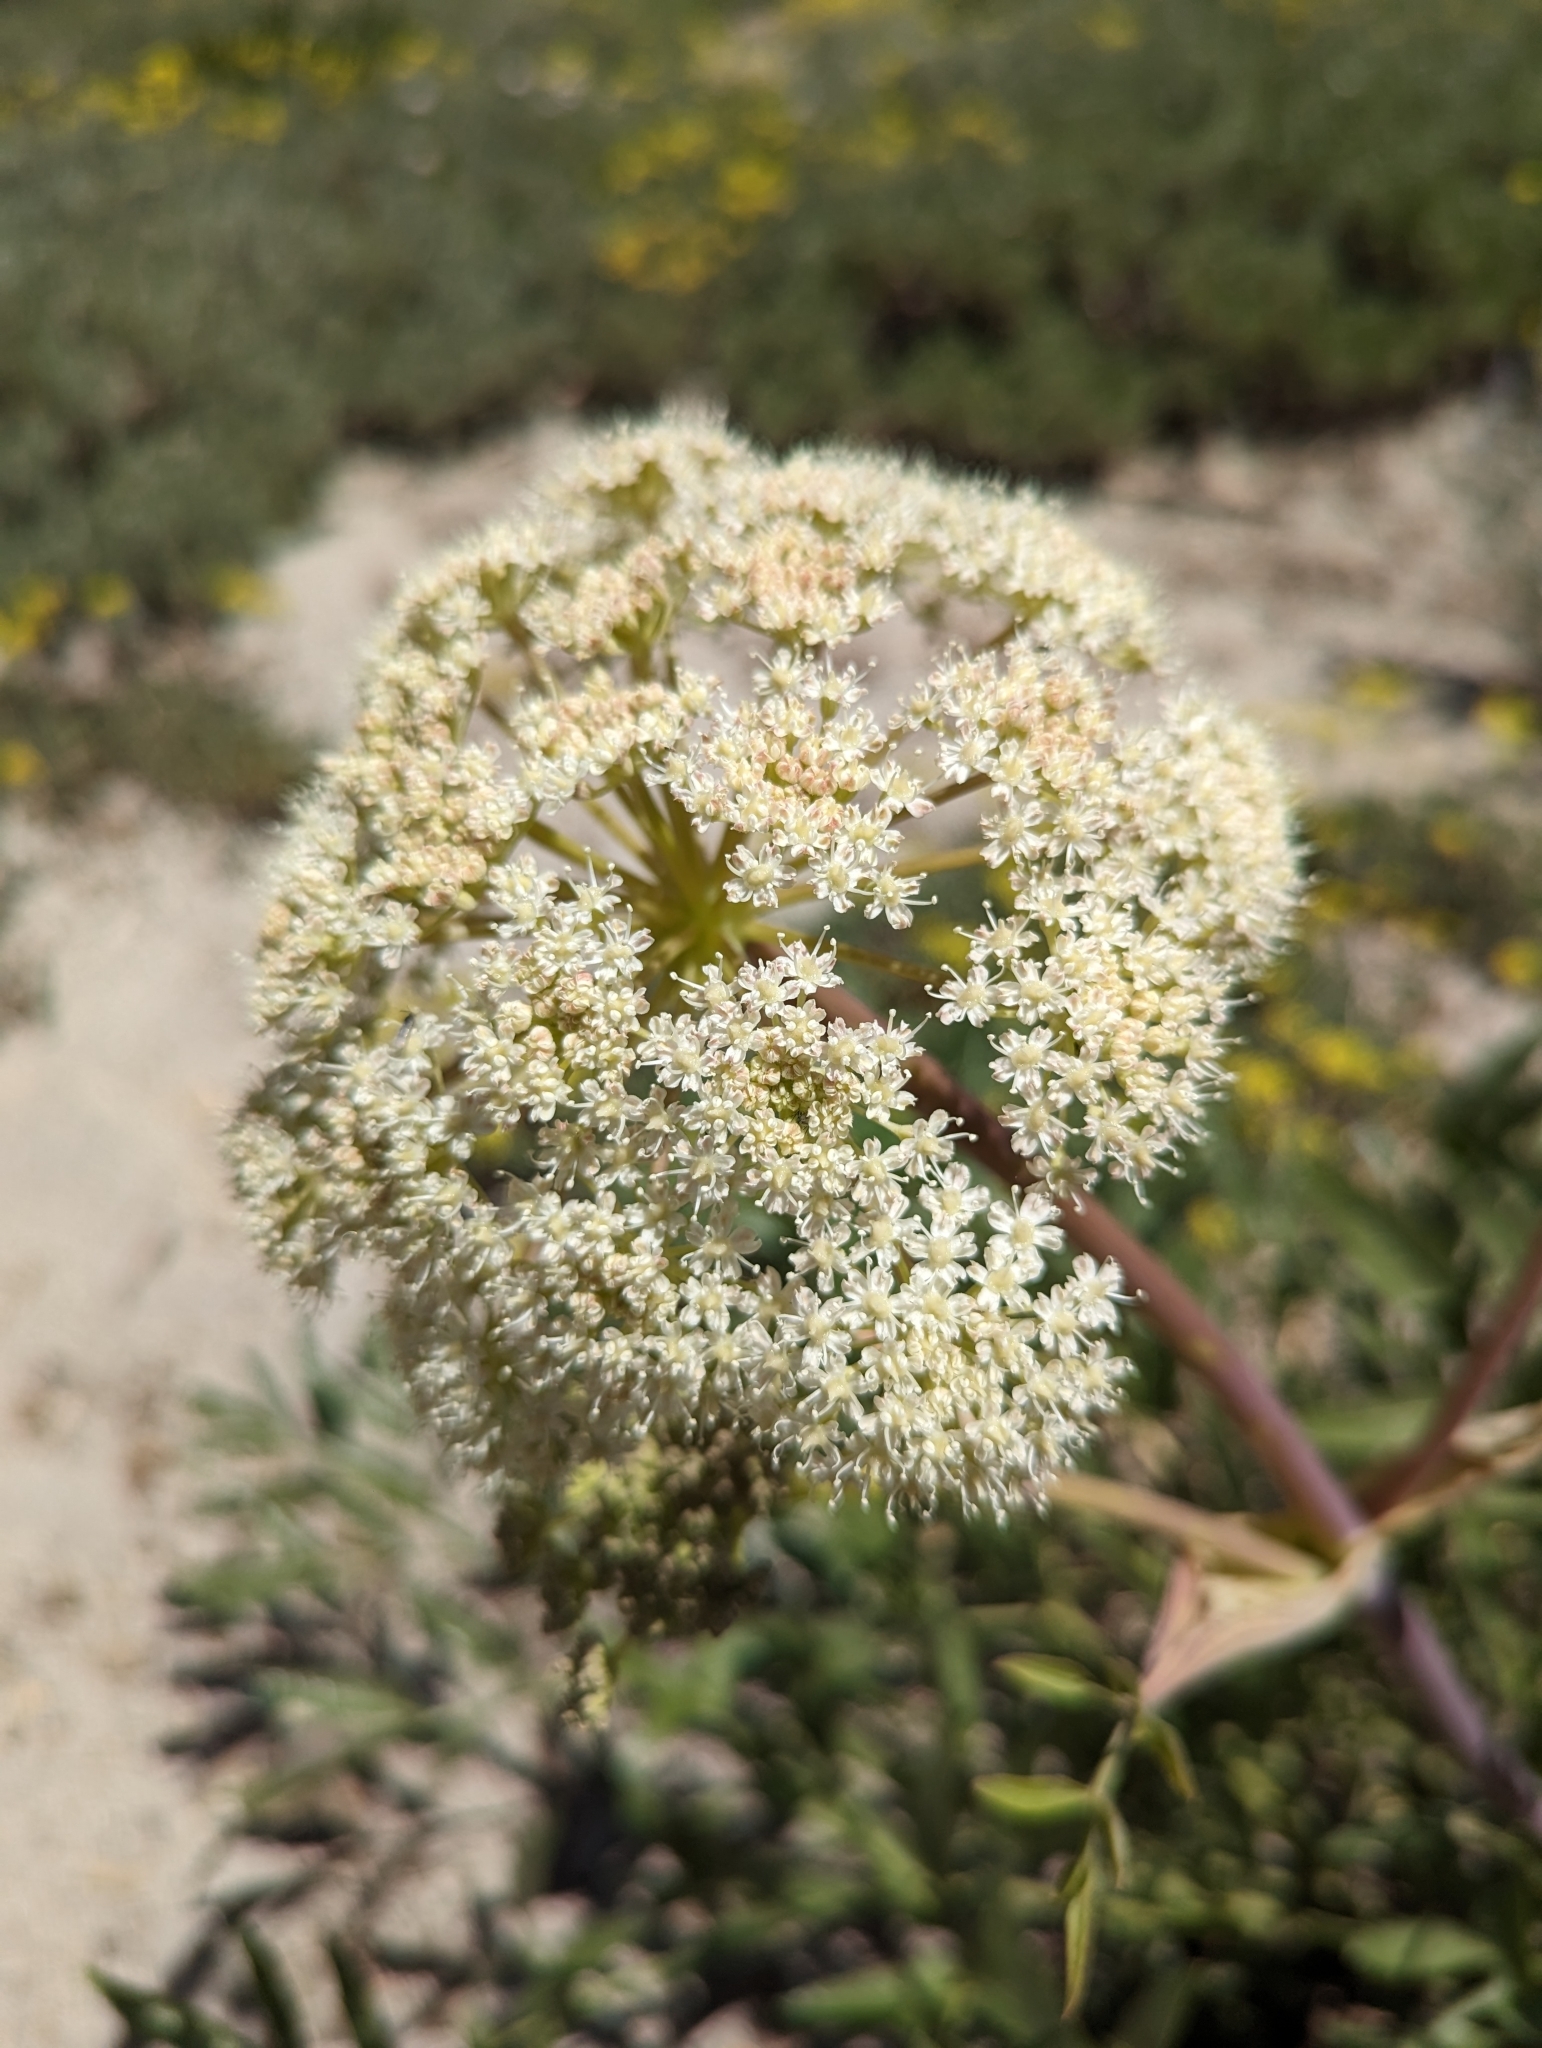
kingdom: Plantae
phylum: Tracheophyta
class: Magnoliopsida
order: Apiales
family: Apiaceae
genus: Angelica
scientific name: Angelica breweri
